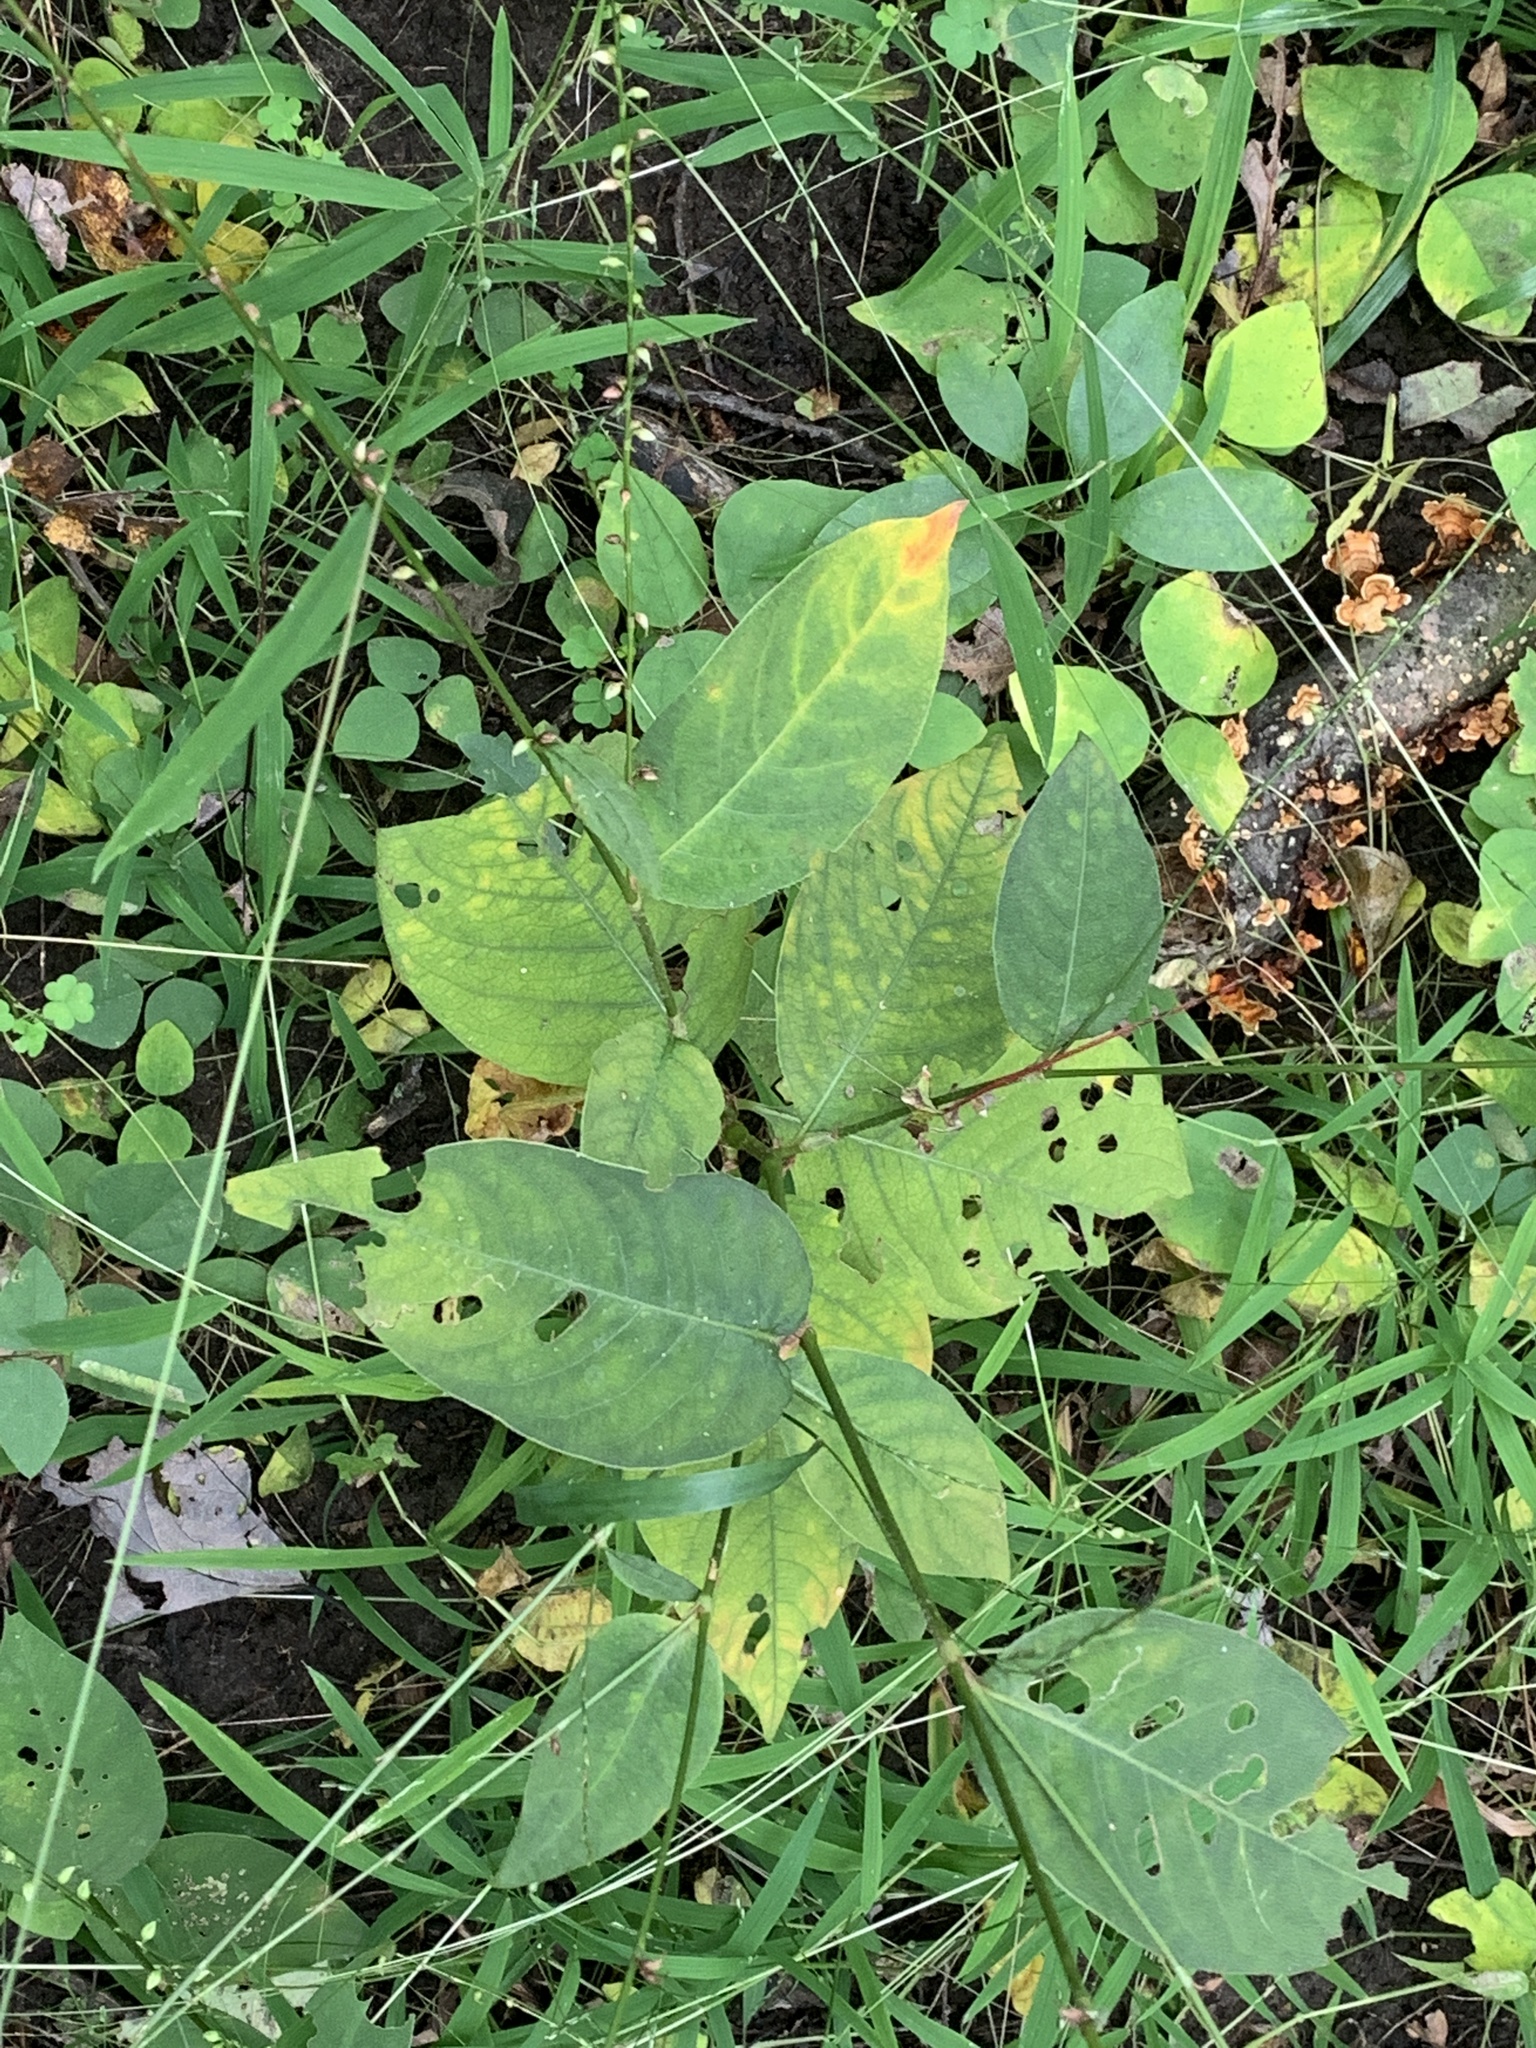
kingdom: Plantae
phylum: Tracheophyta
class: Magnoliopsida
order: Caryophyllales
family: Polygonaceae
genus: Persicaria
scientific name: Persicaria virginiana
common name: Jumpseed
